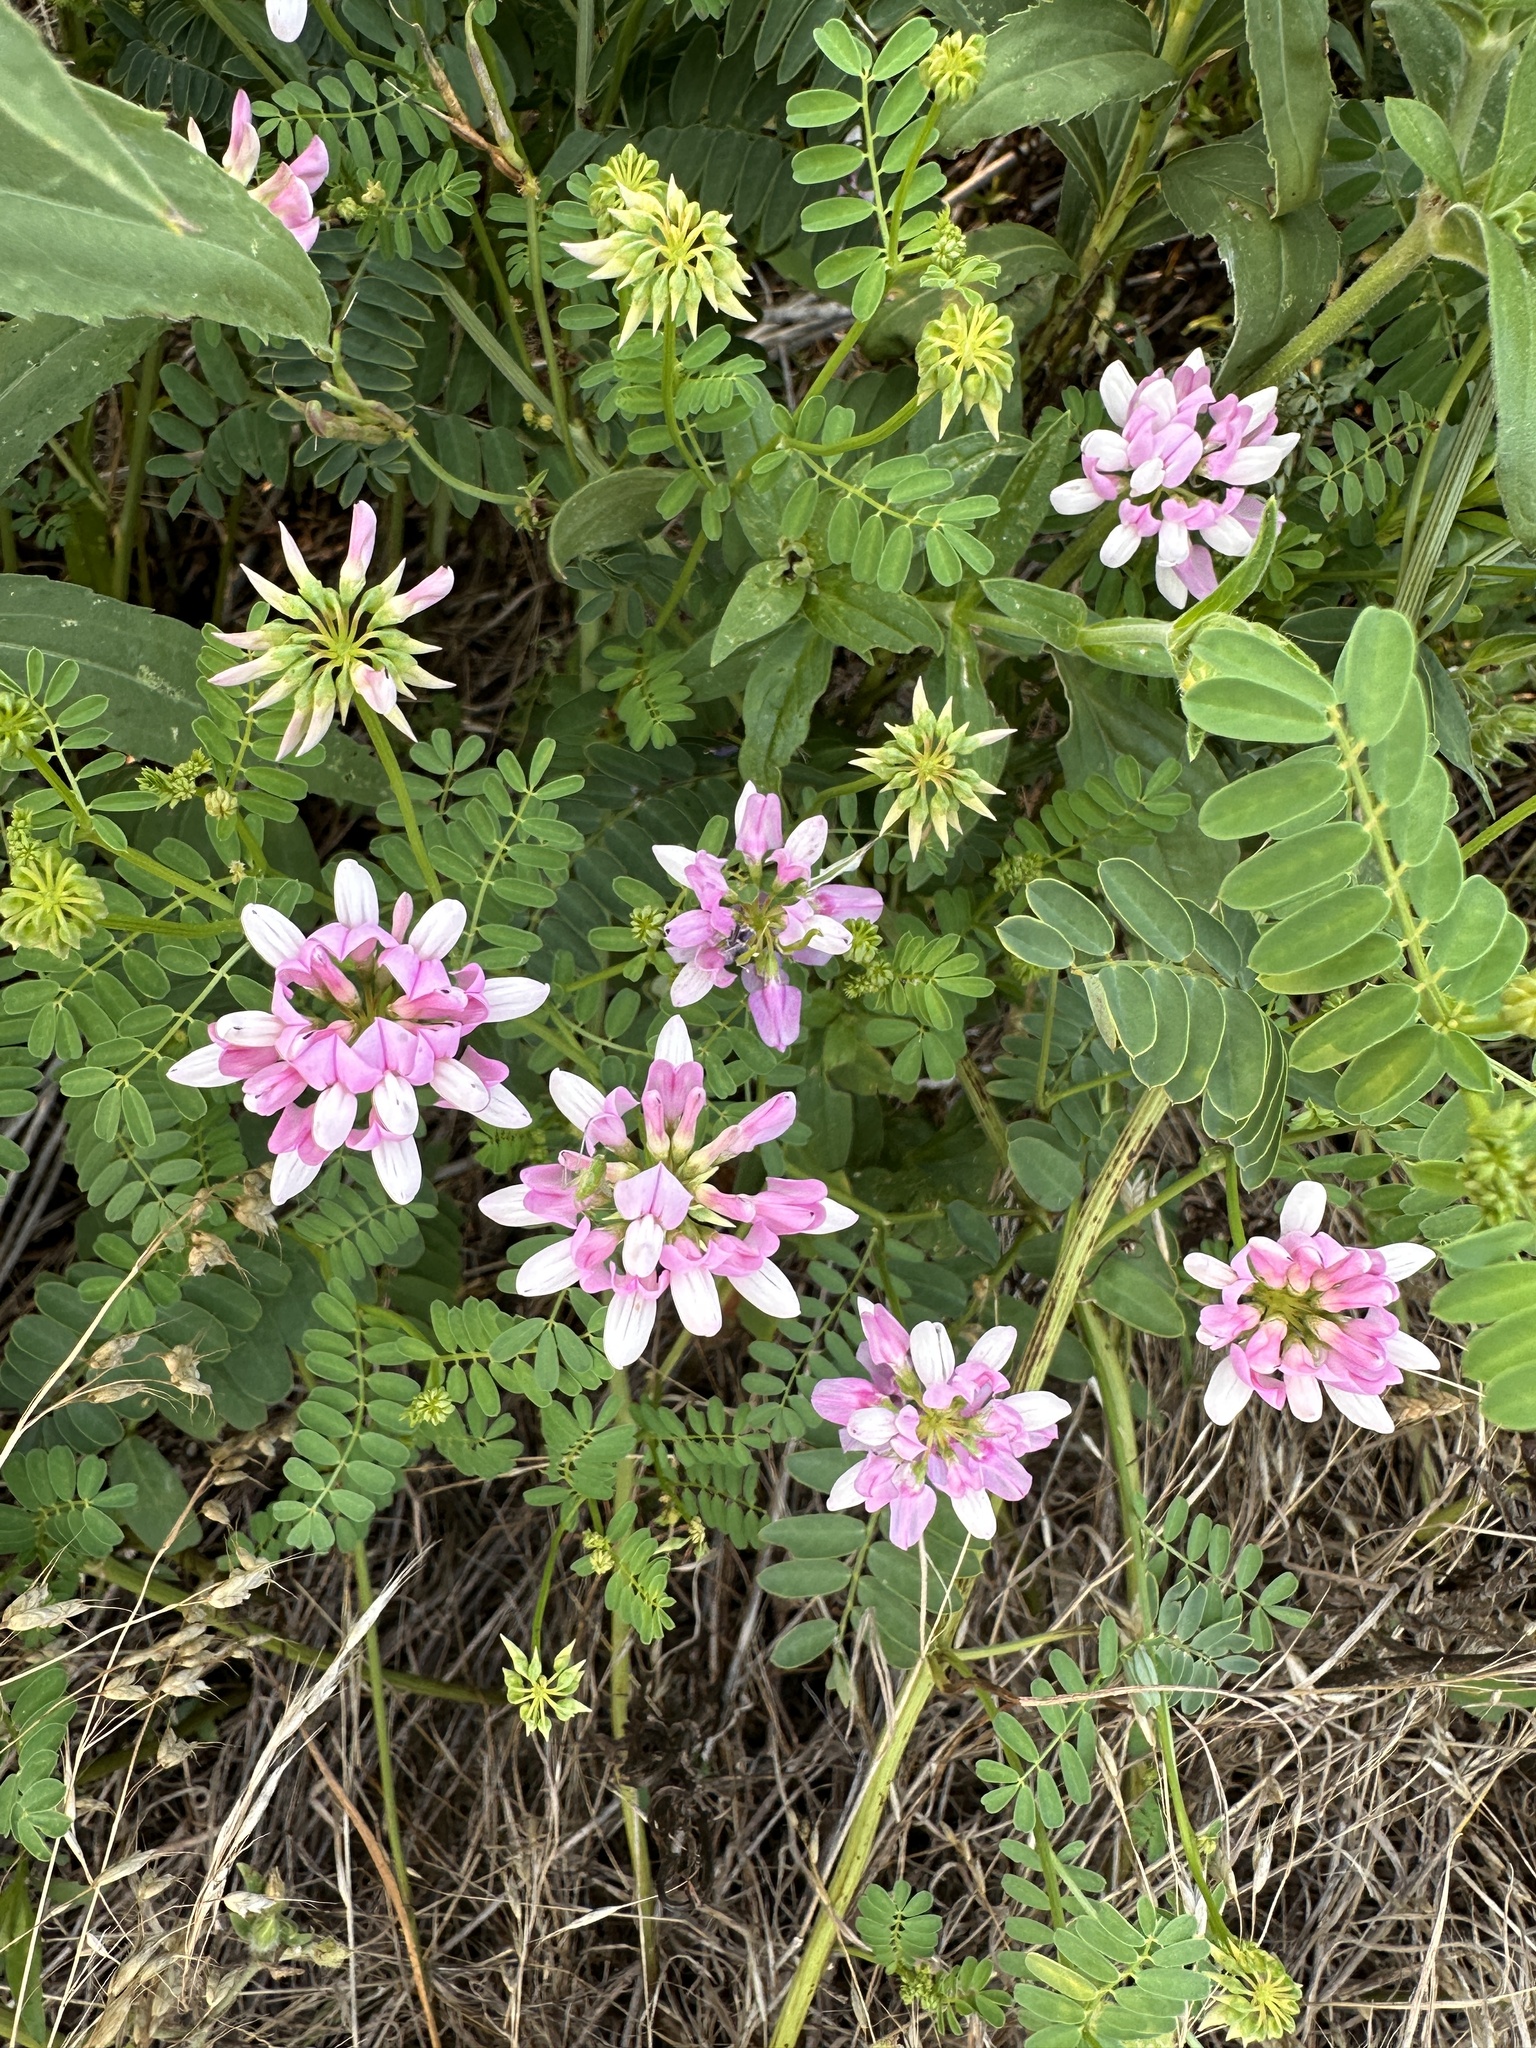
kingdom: Plantae
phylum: Tracheophyta
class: Magnoliopsida
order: Fabales
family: Fabaceae
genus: Coronilla
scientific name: Coronilla varia
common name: Crownvetch
